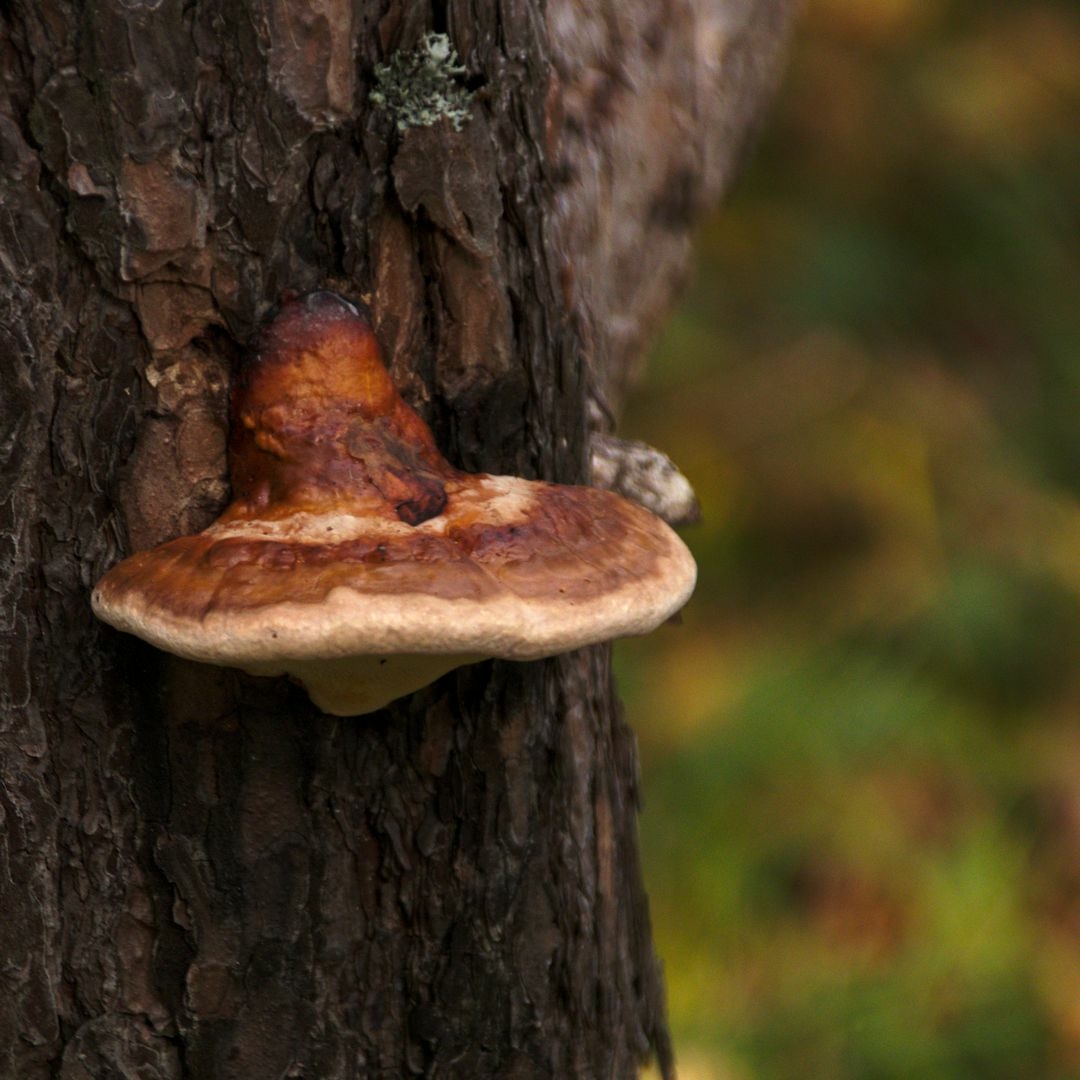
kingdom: Fungi
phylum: Basidiomycota
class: Agaricomycetes
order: Polyporales
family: Fomitopsidaceae
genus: Fomitopsis
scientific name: Fomitopsis pinicola
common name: Red-belted bracket
